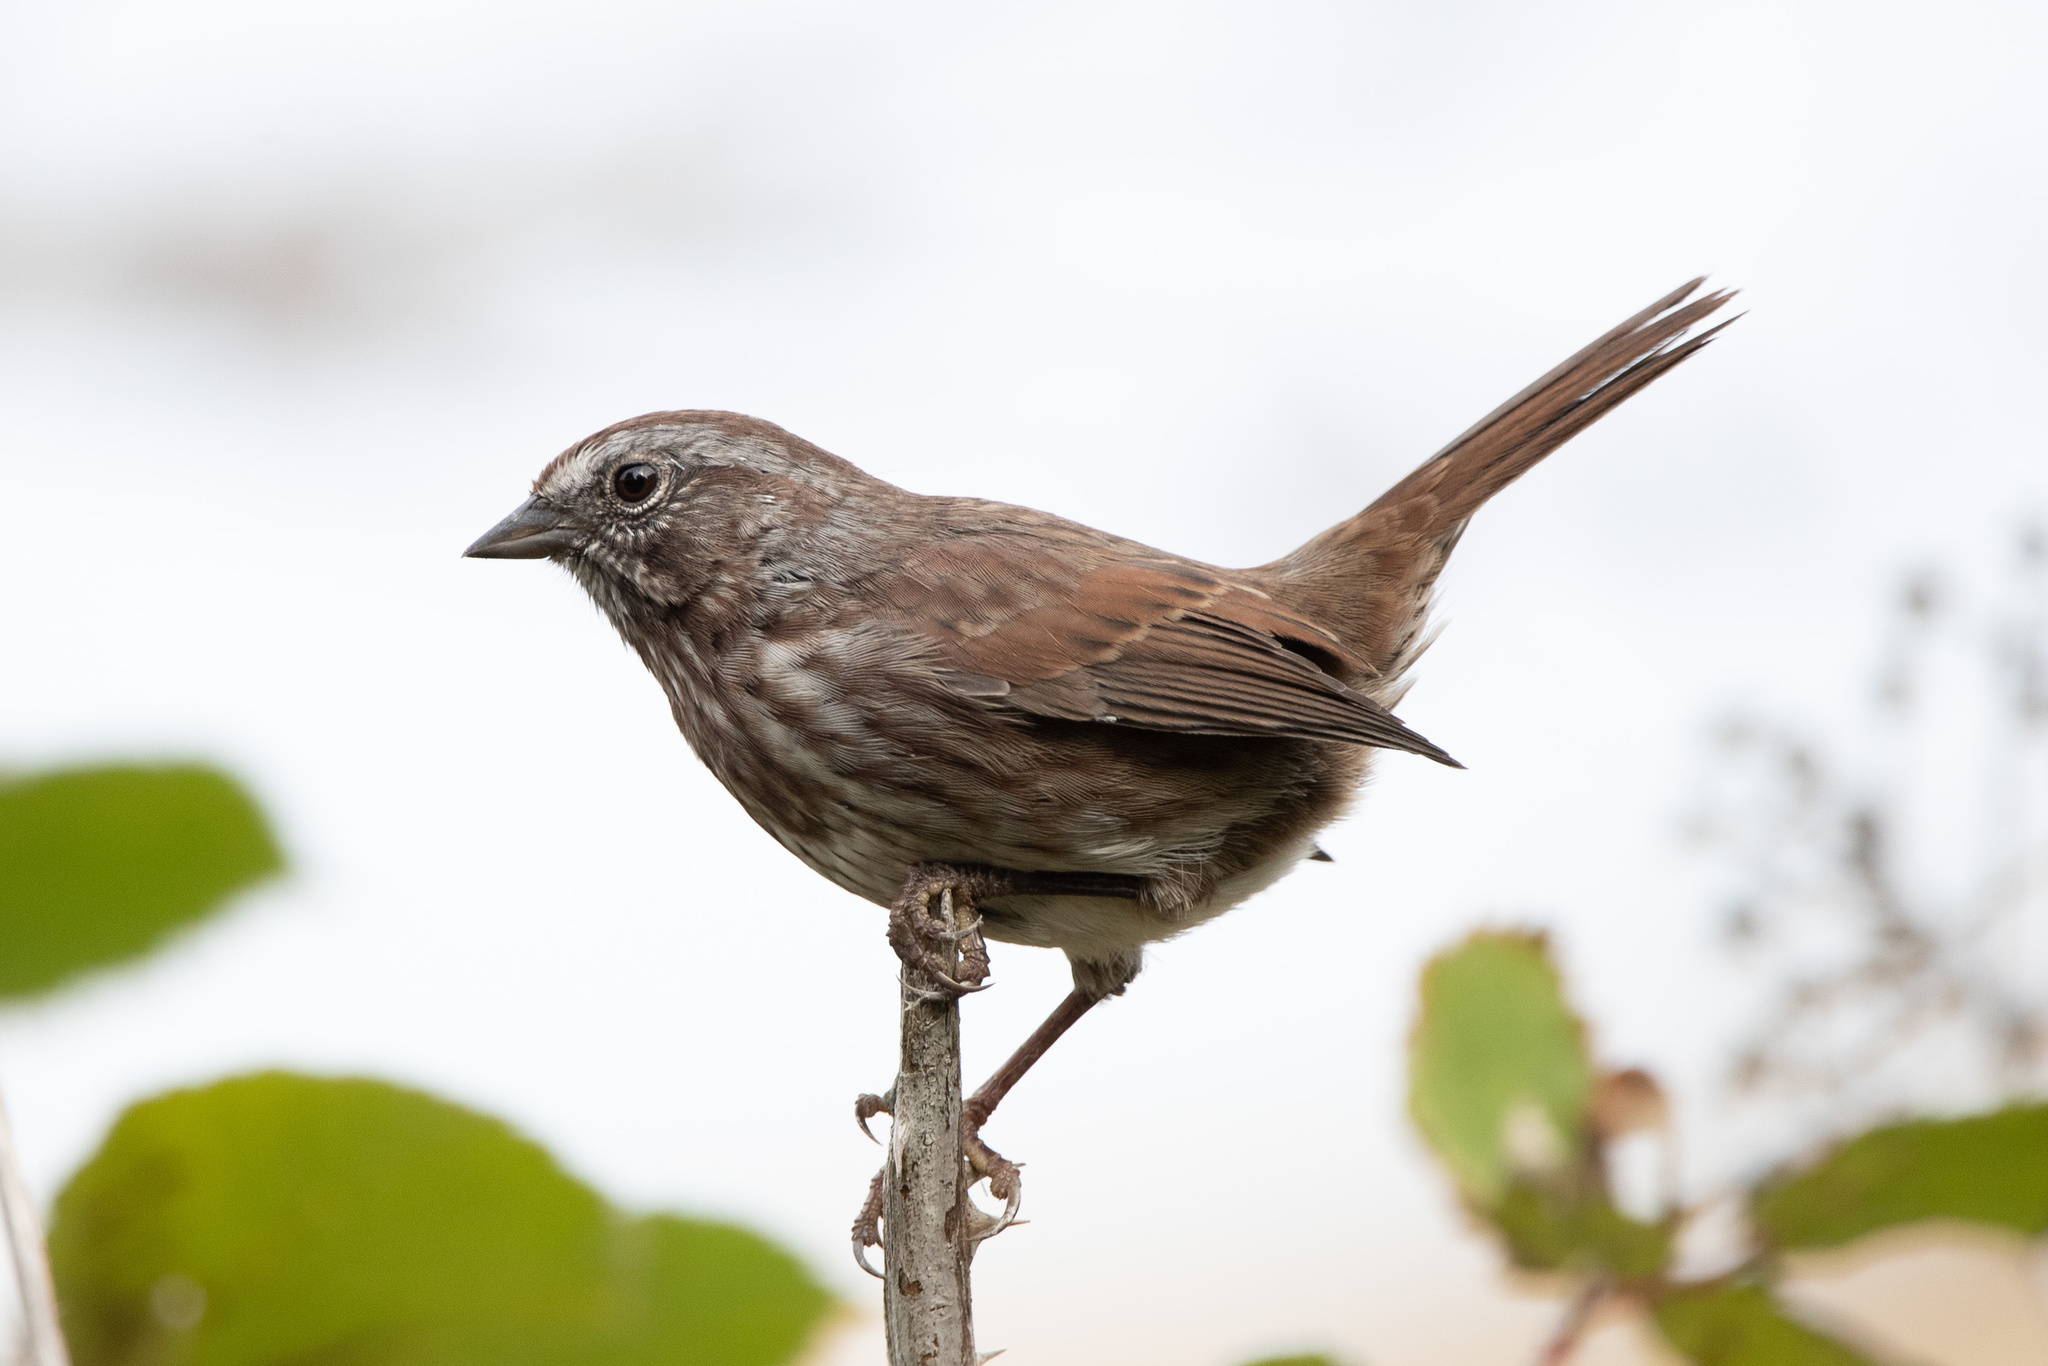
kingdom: Animalia
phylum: Chordata
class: Aves
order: Passeriformes
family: Passerellidae
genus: Melospiza
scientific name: Melospiza melodia
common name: Song sparrow
